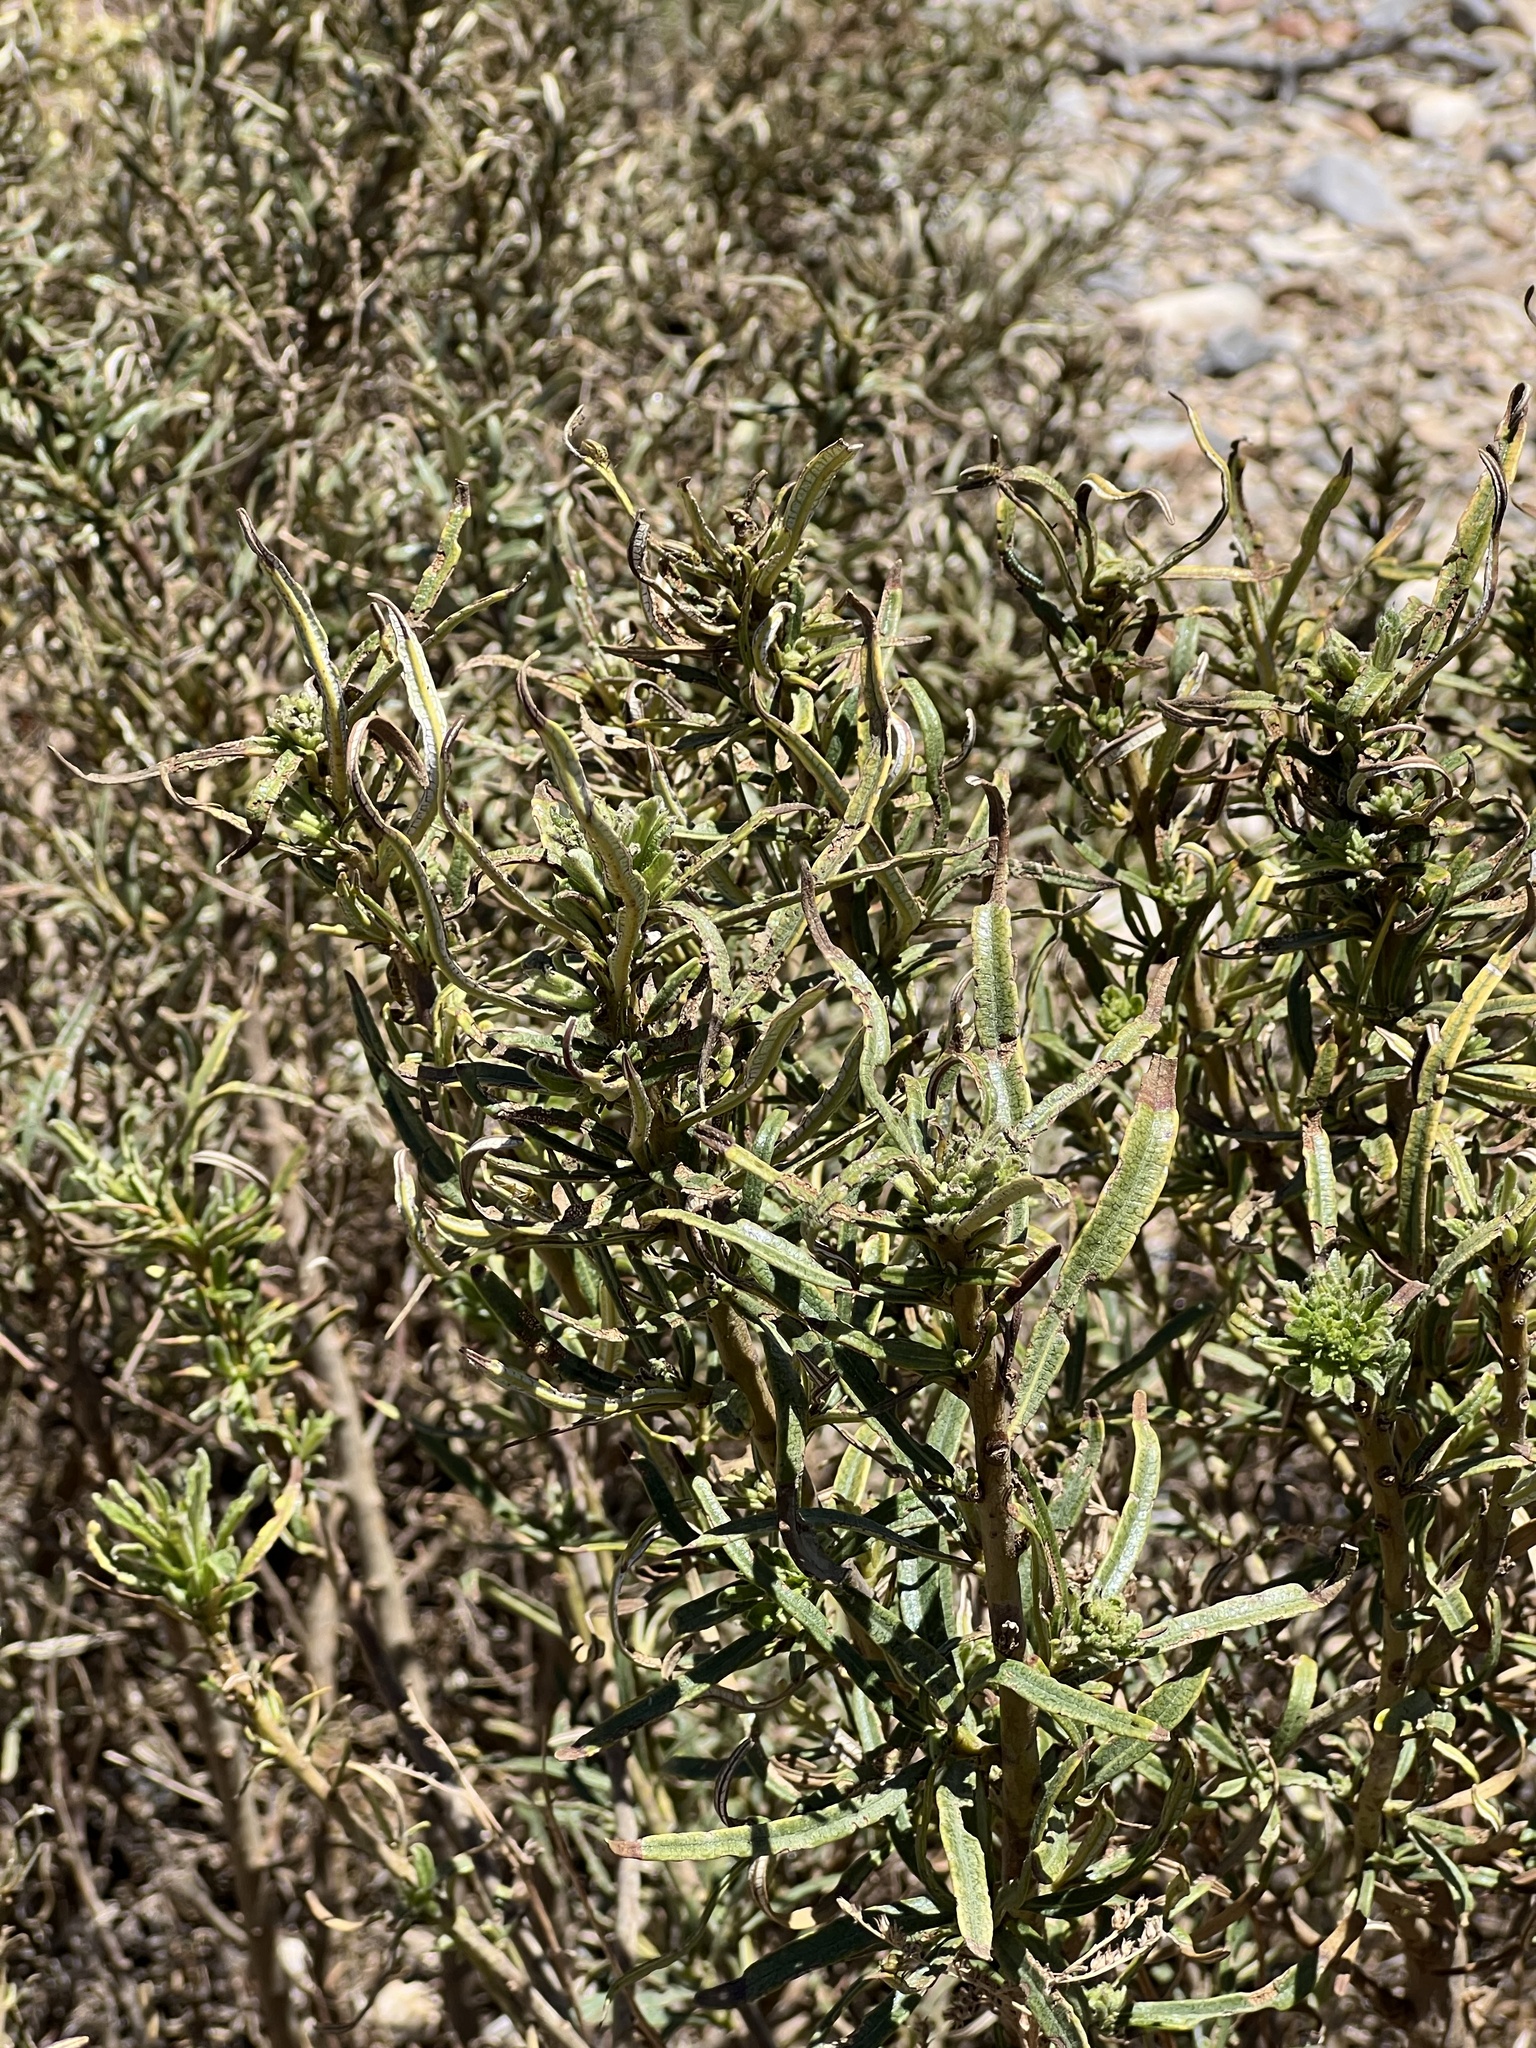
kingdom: Plantae
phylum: Tracheophyta
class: Magnoliopsida
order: Boraginales
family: Namaceae
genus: Eriodictyon
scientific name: Eriodictyon angustifolium
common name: Narrow-leaf yerba santa
